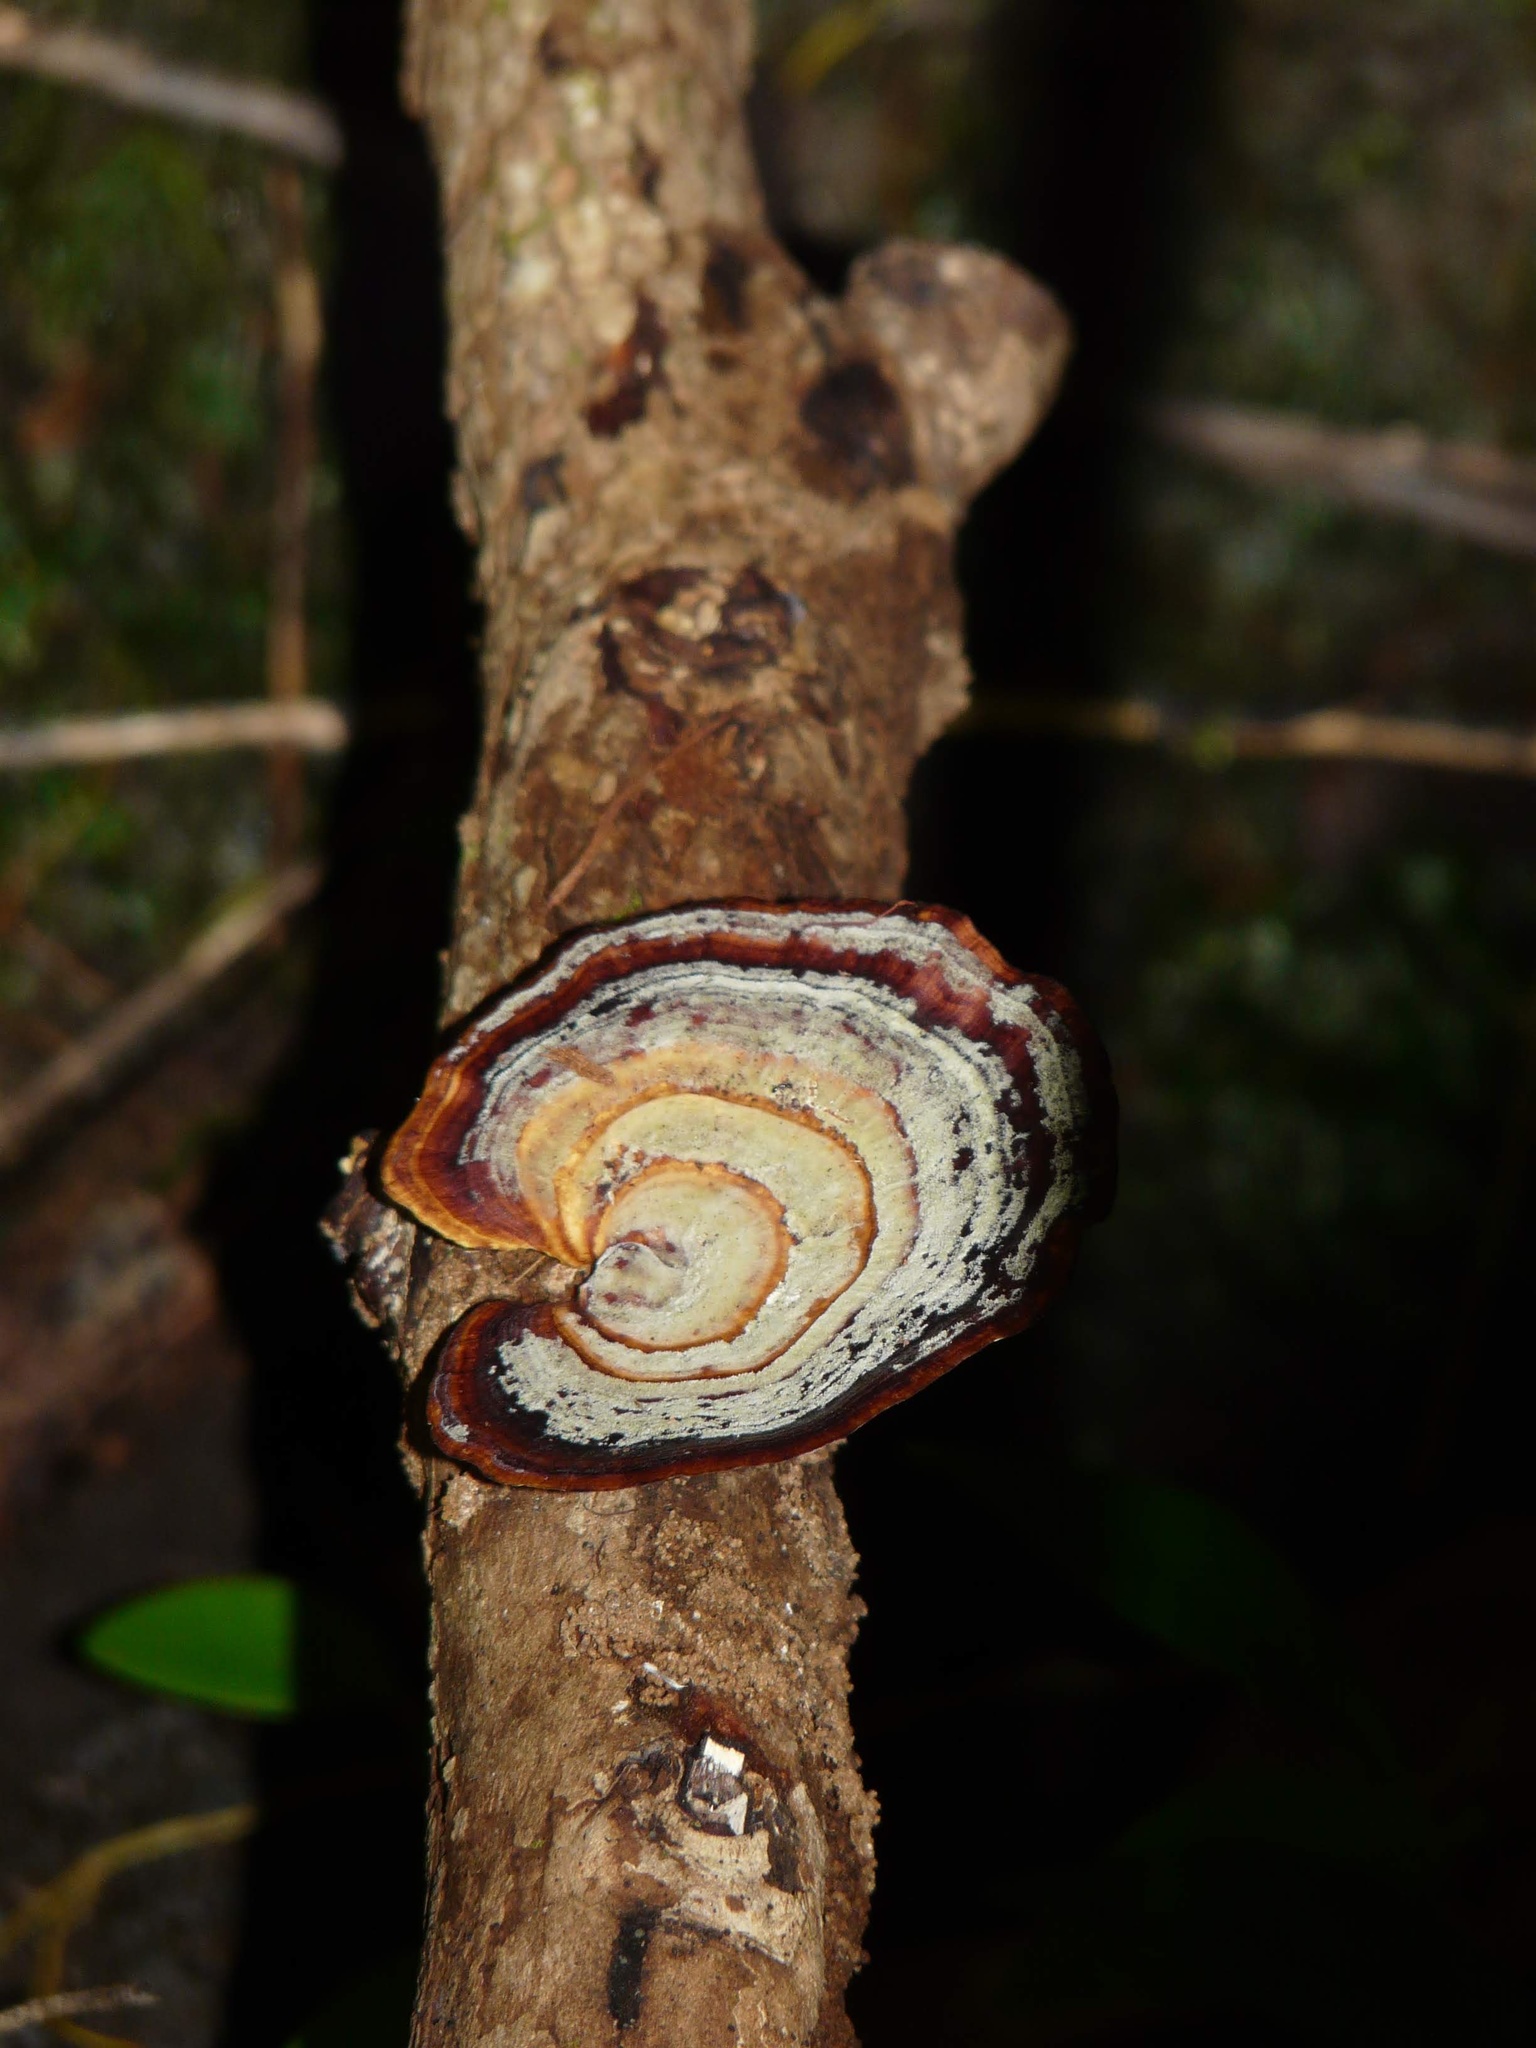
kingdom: Fungi
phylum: Basidiomycota
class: Agaricomycetes
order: Polyporales
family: Polyporaceae
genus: Microporus
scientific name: Microporus affinis
